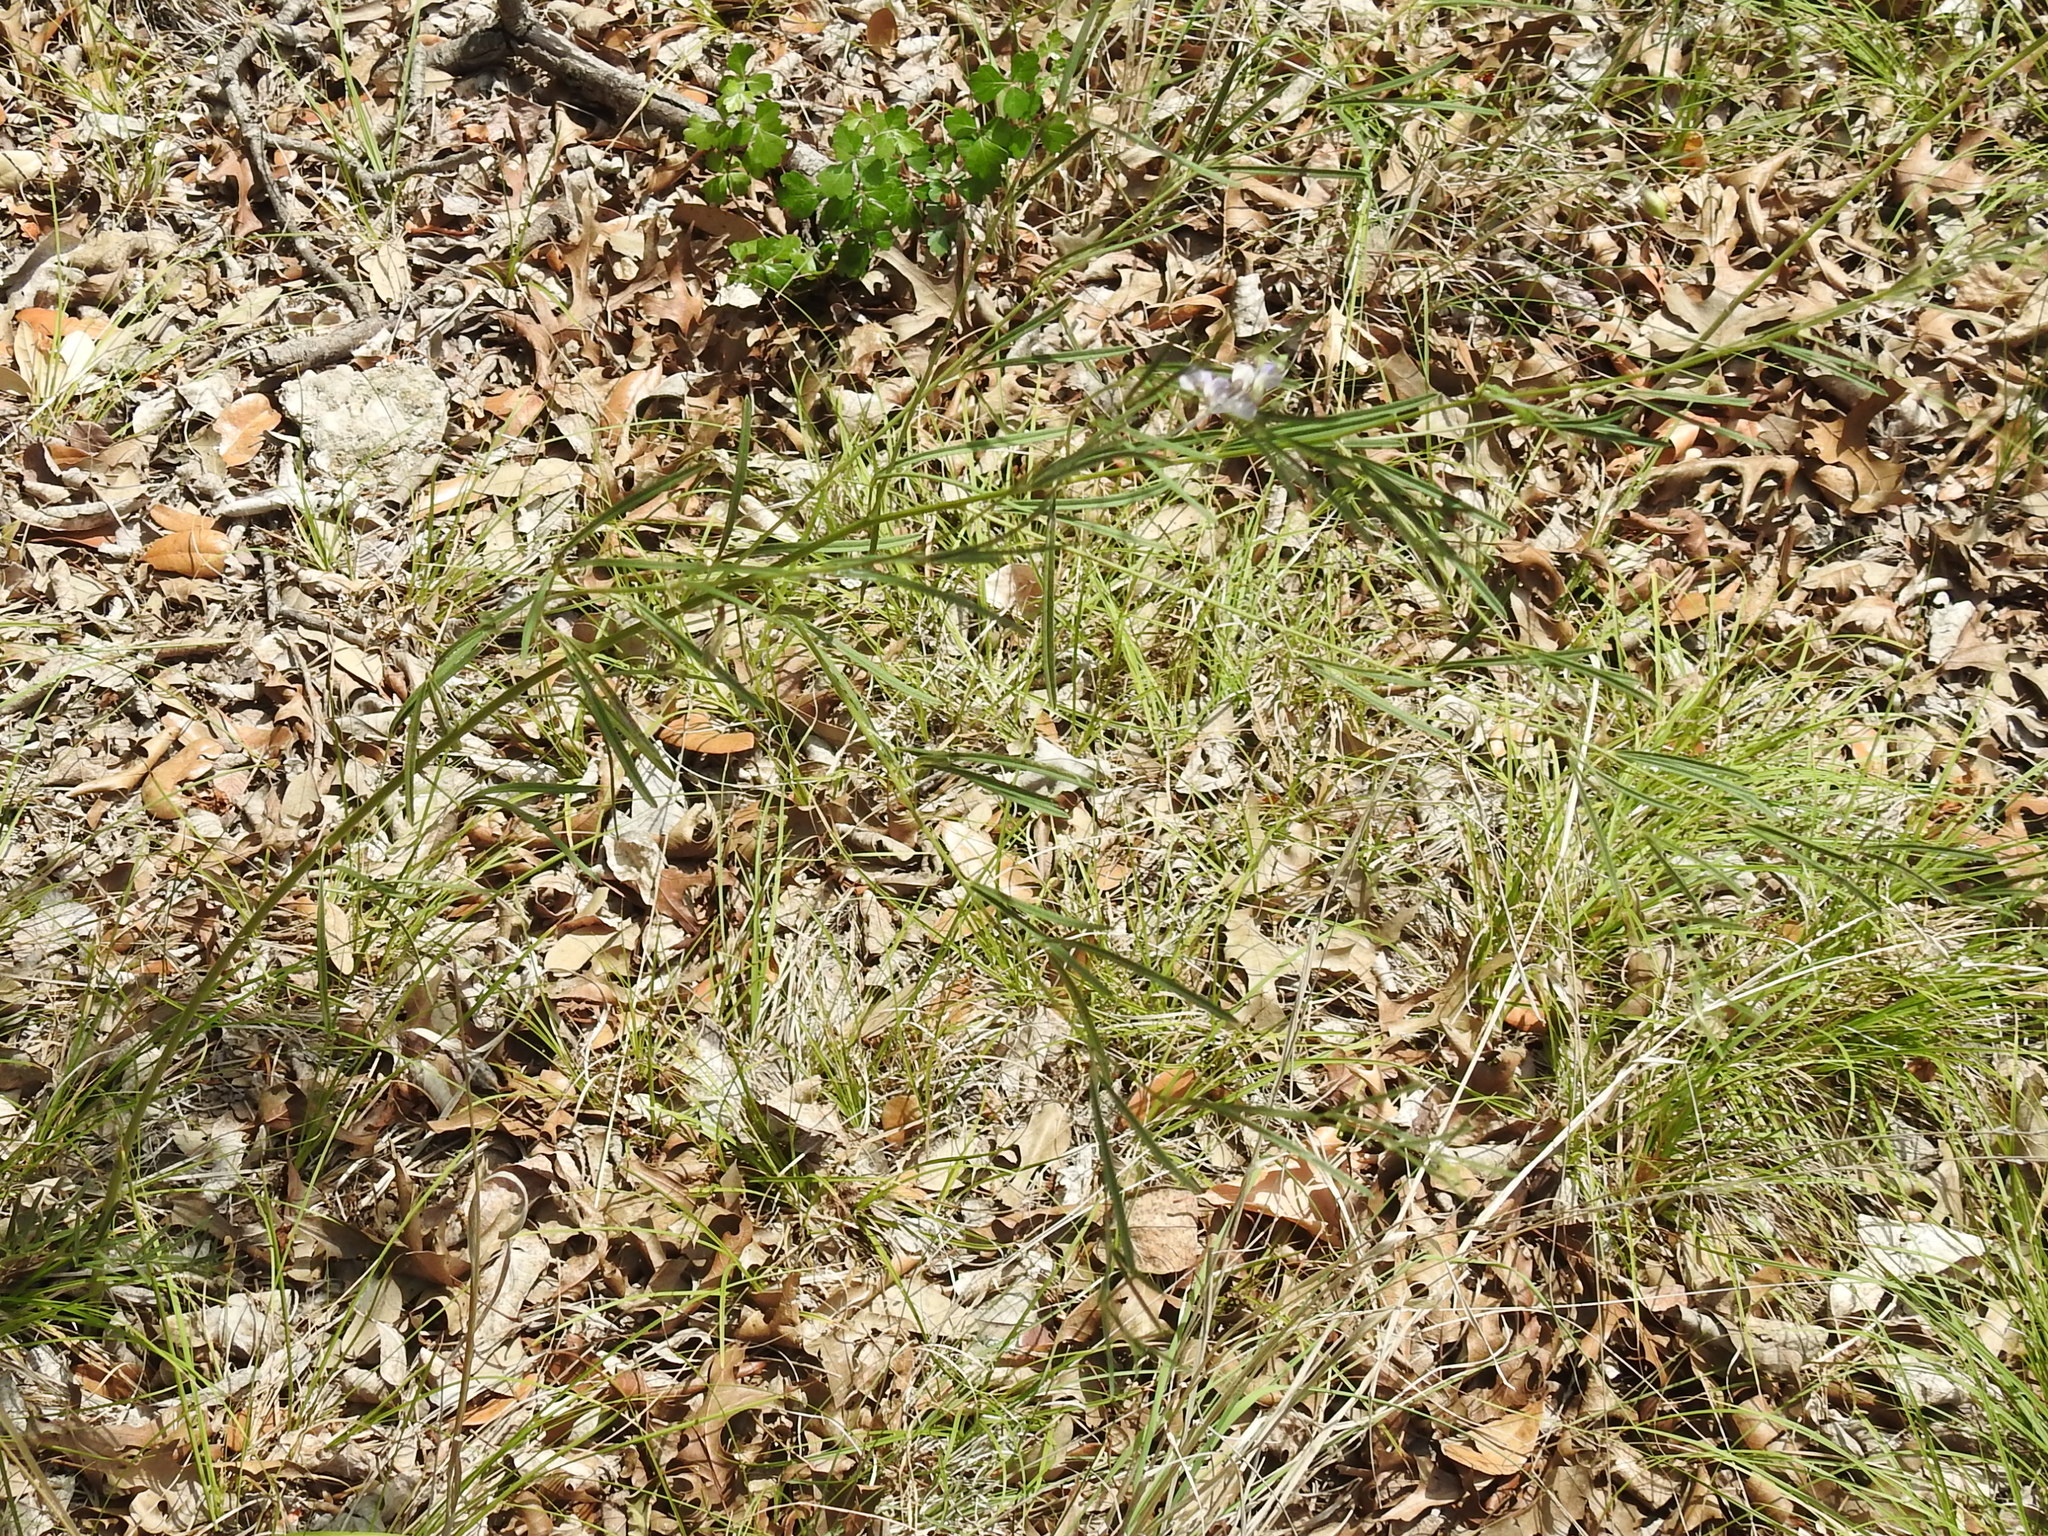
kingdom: Plantae
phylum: Tracheophyta
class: Magnoliopsida
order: Fabales
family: Fabaceae
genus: Pediomelum
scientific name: Pediomelum linearifolium
